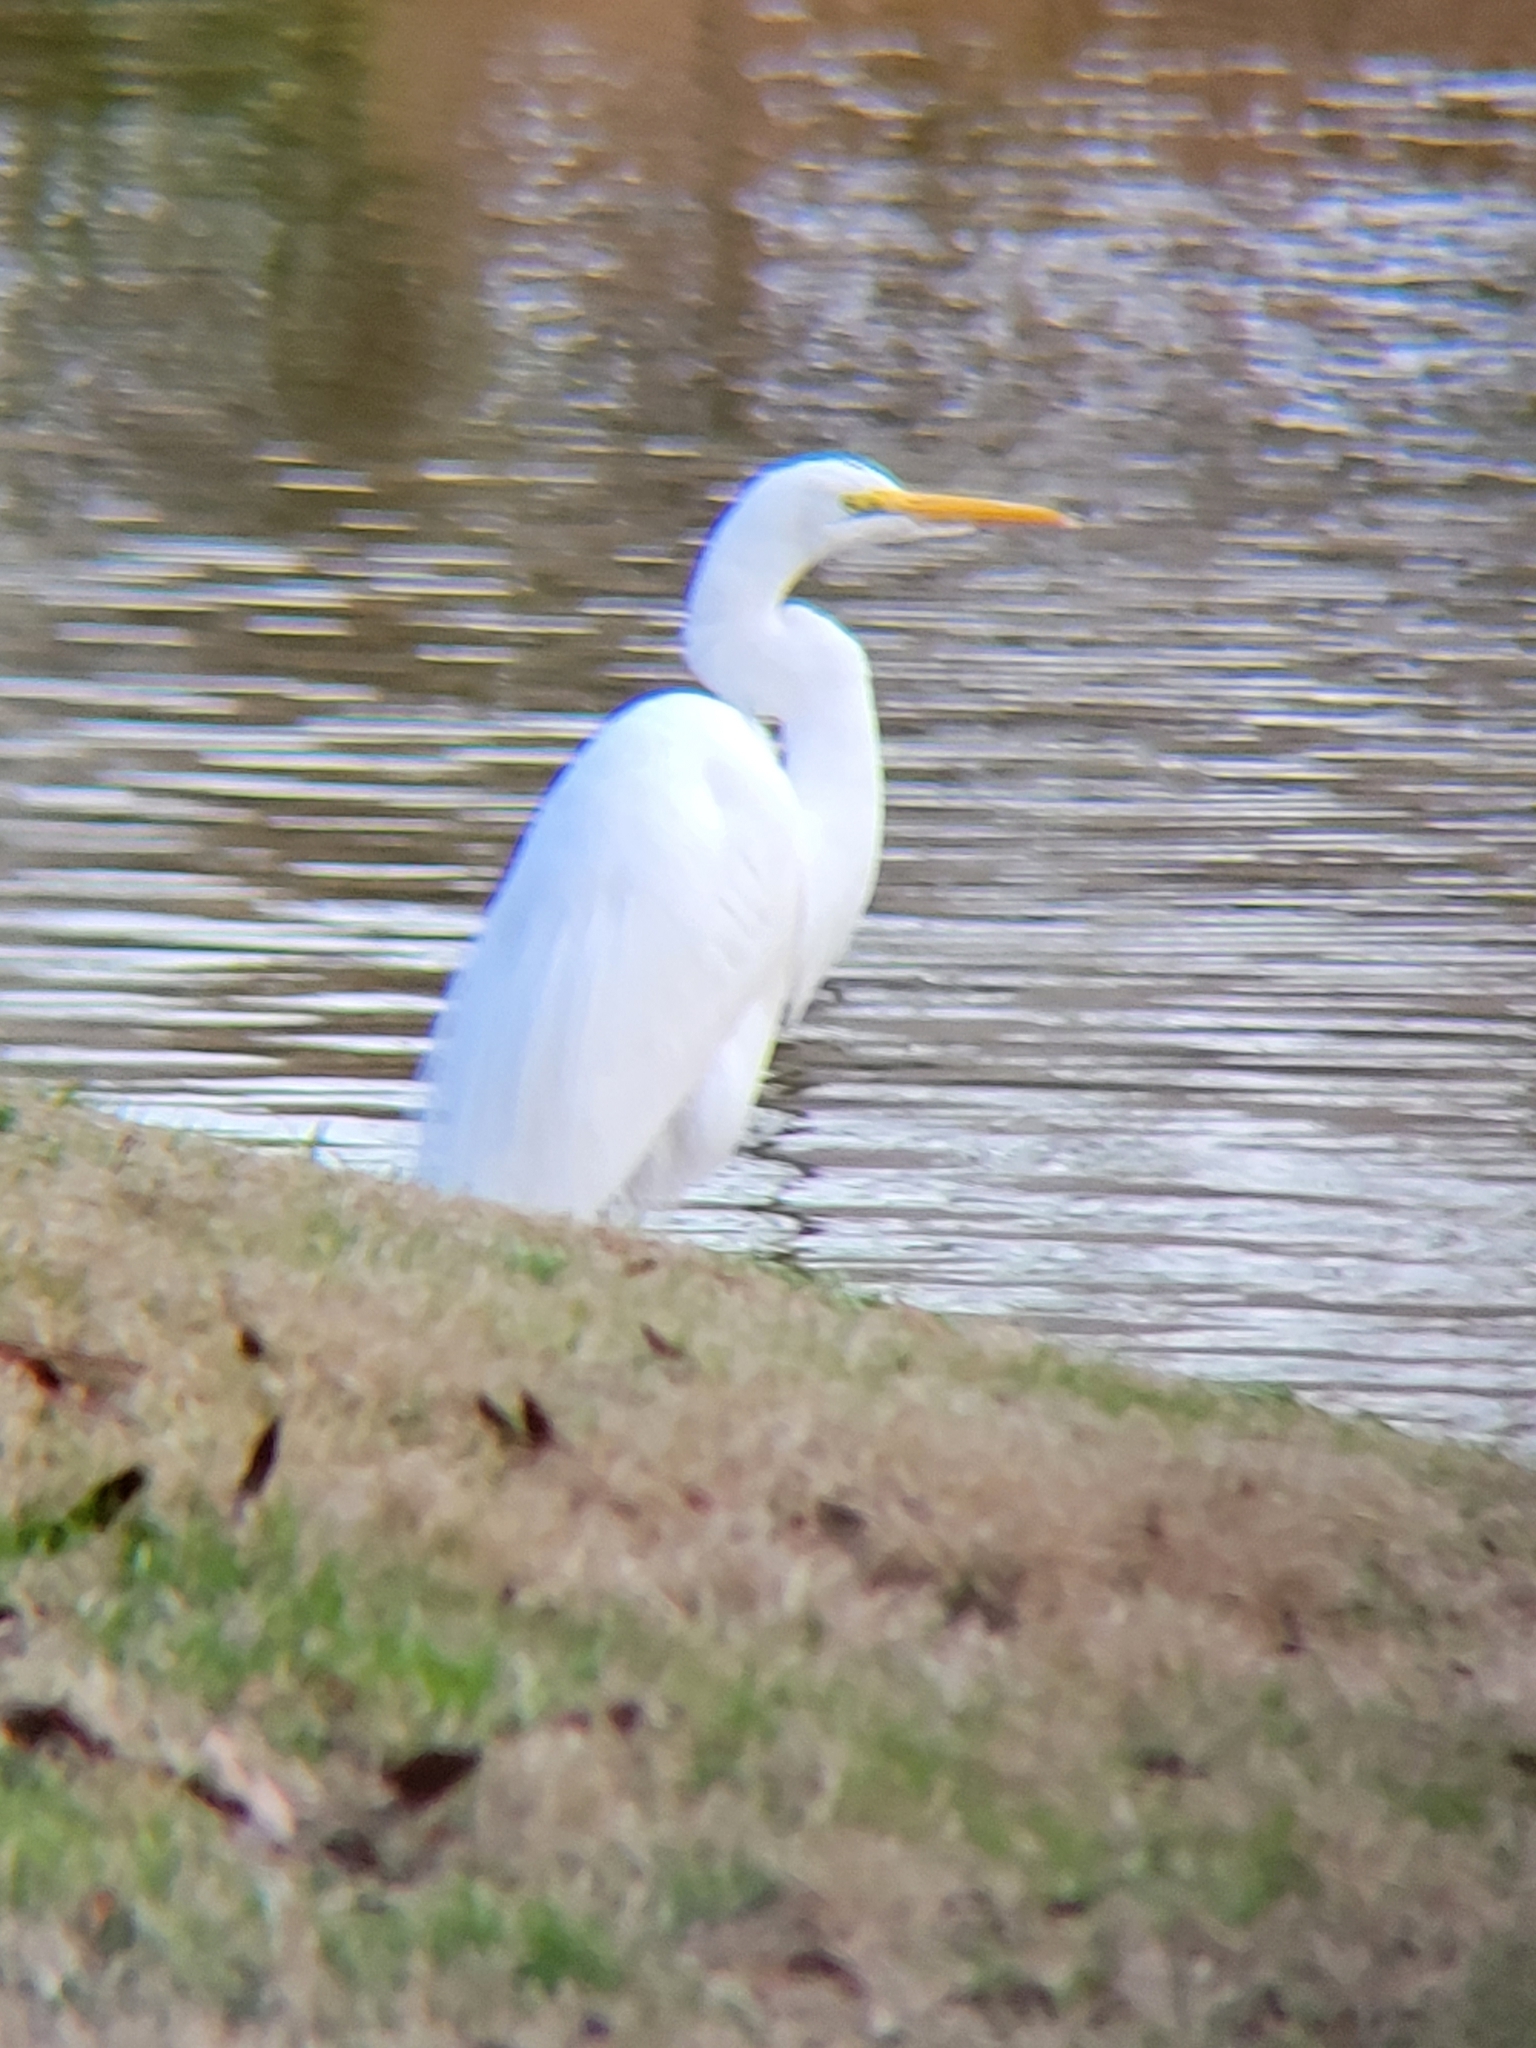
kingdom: Animalia
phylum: Chordata
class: Aves
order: Pelecaniformes
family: Ardeidae
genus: Ardea
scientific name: Ardea alba
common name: Great egret
